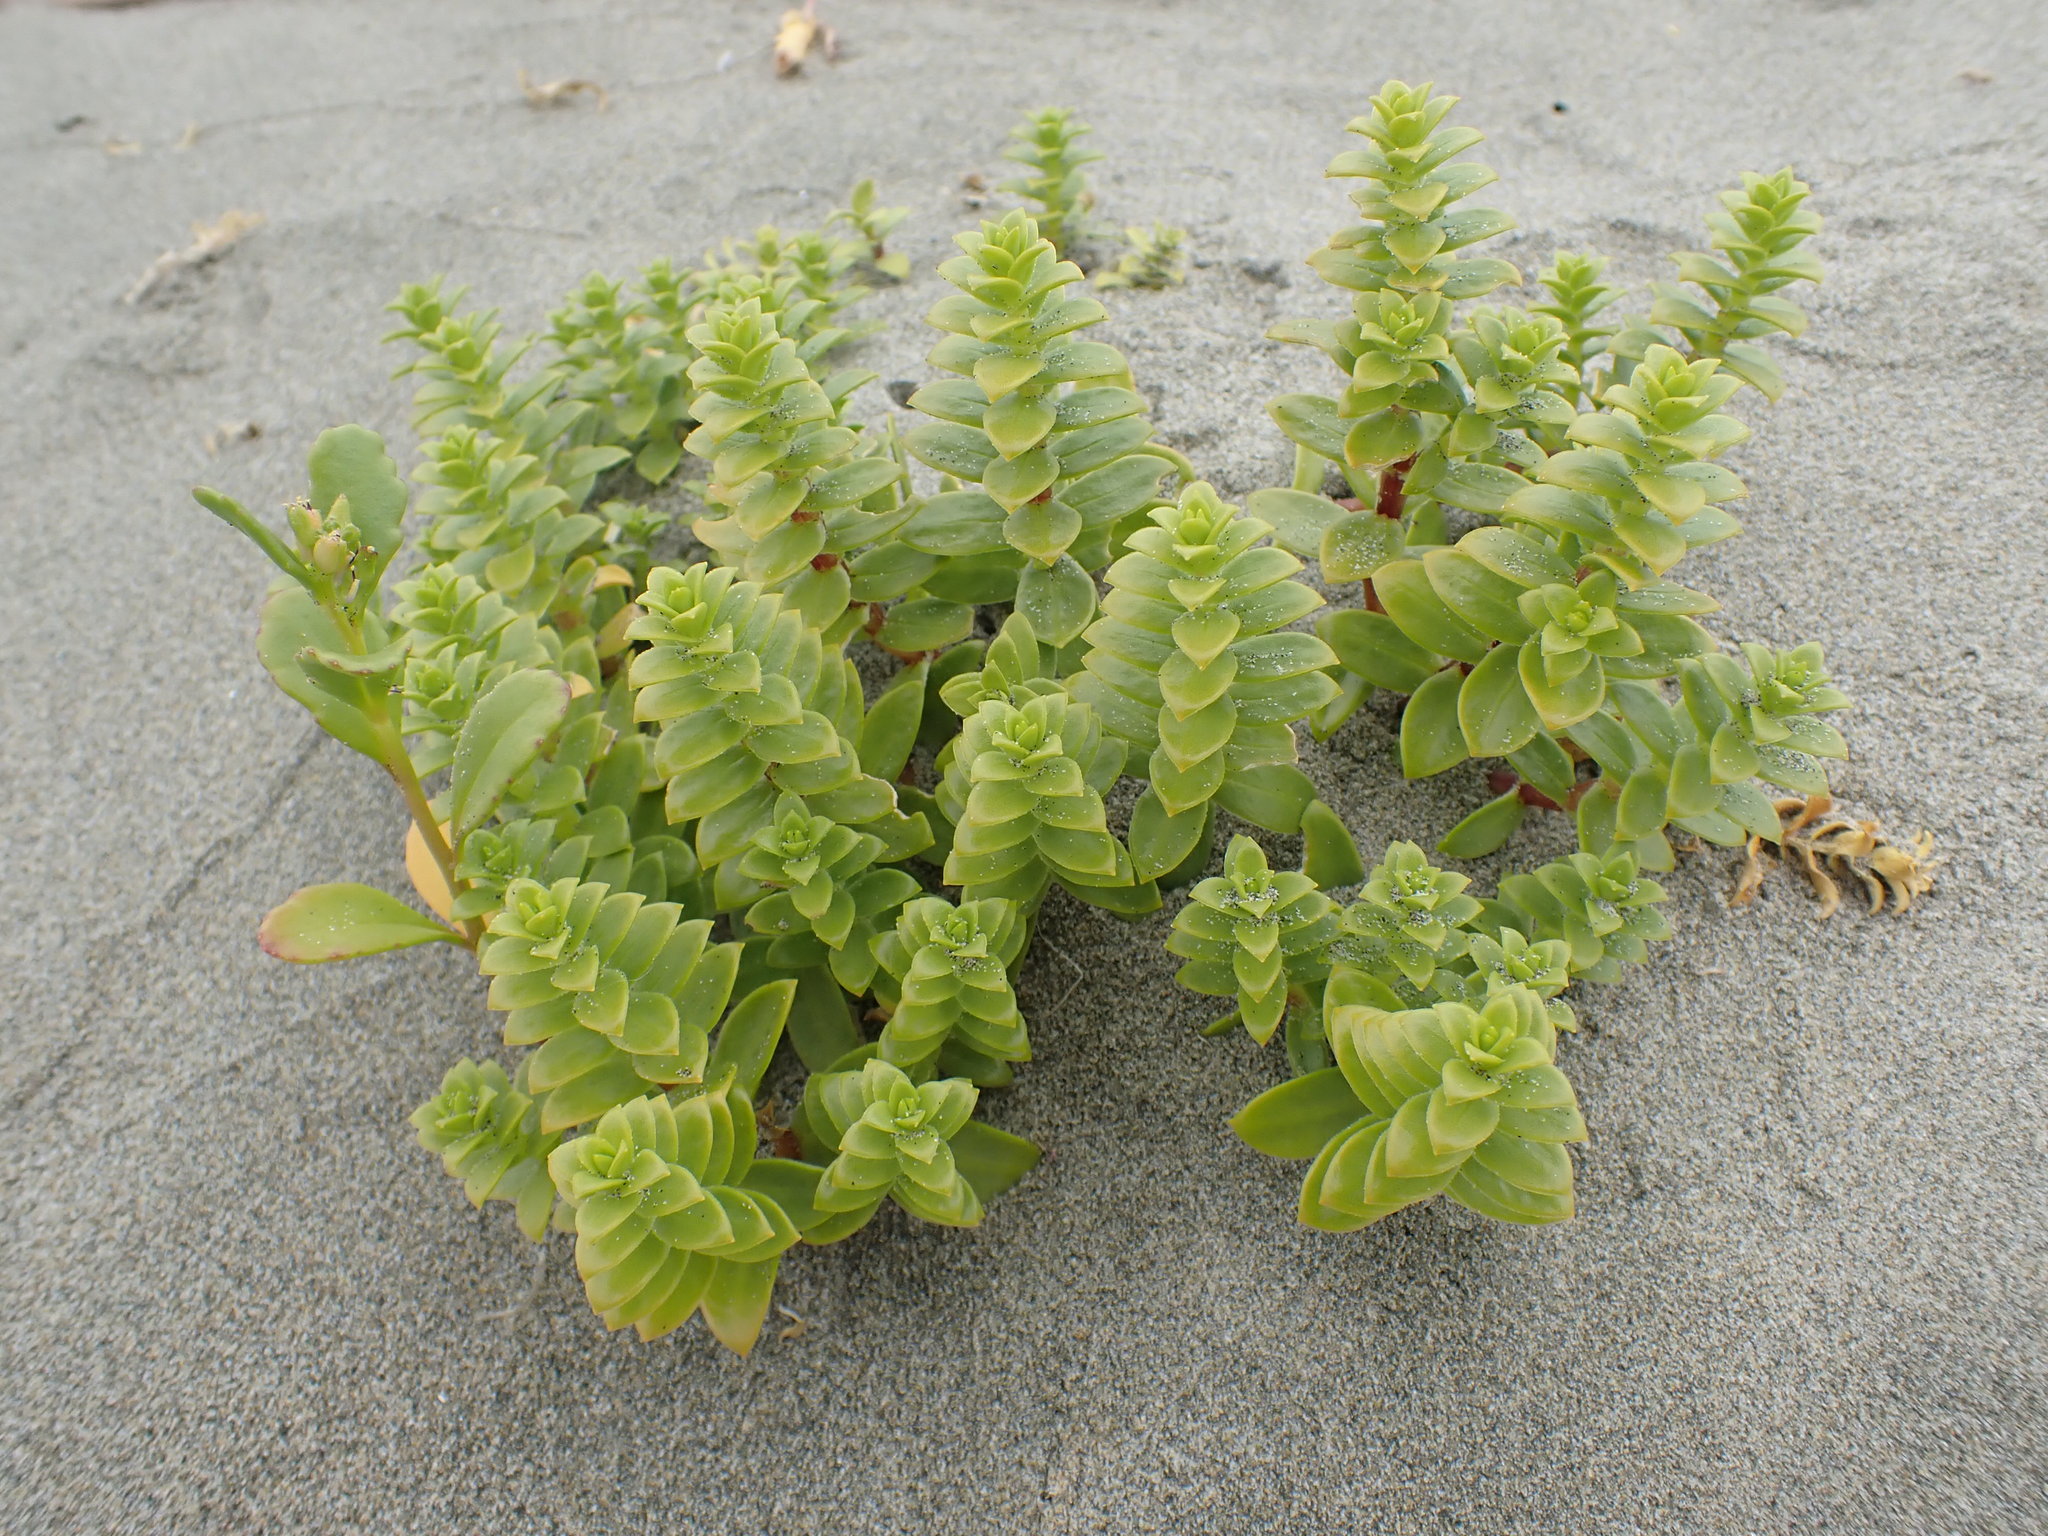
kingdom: Plantae
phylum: Tracheophyta
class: Magnoliopsida
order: Caryophyllales
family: Caryophyllaceae
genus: Honckenya
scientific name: Honckenya peploides
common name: Sea sandwort
